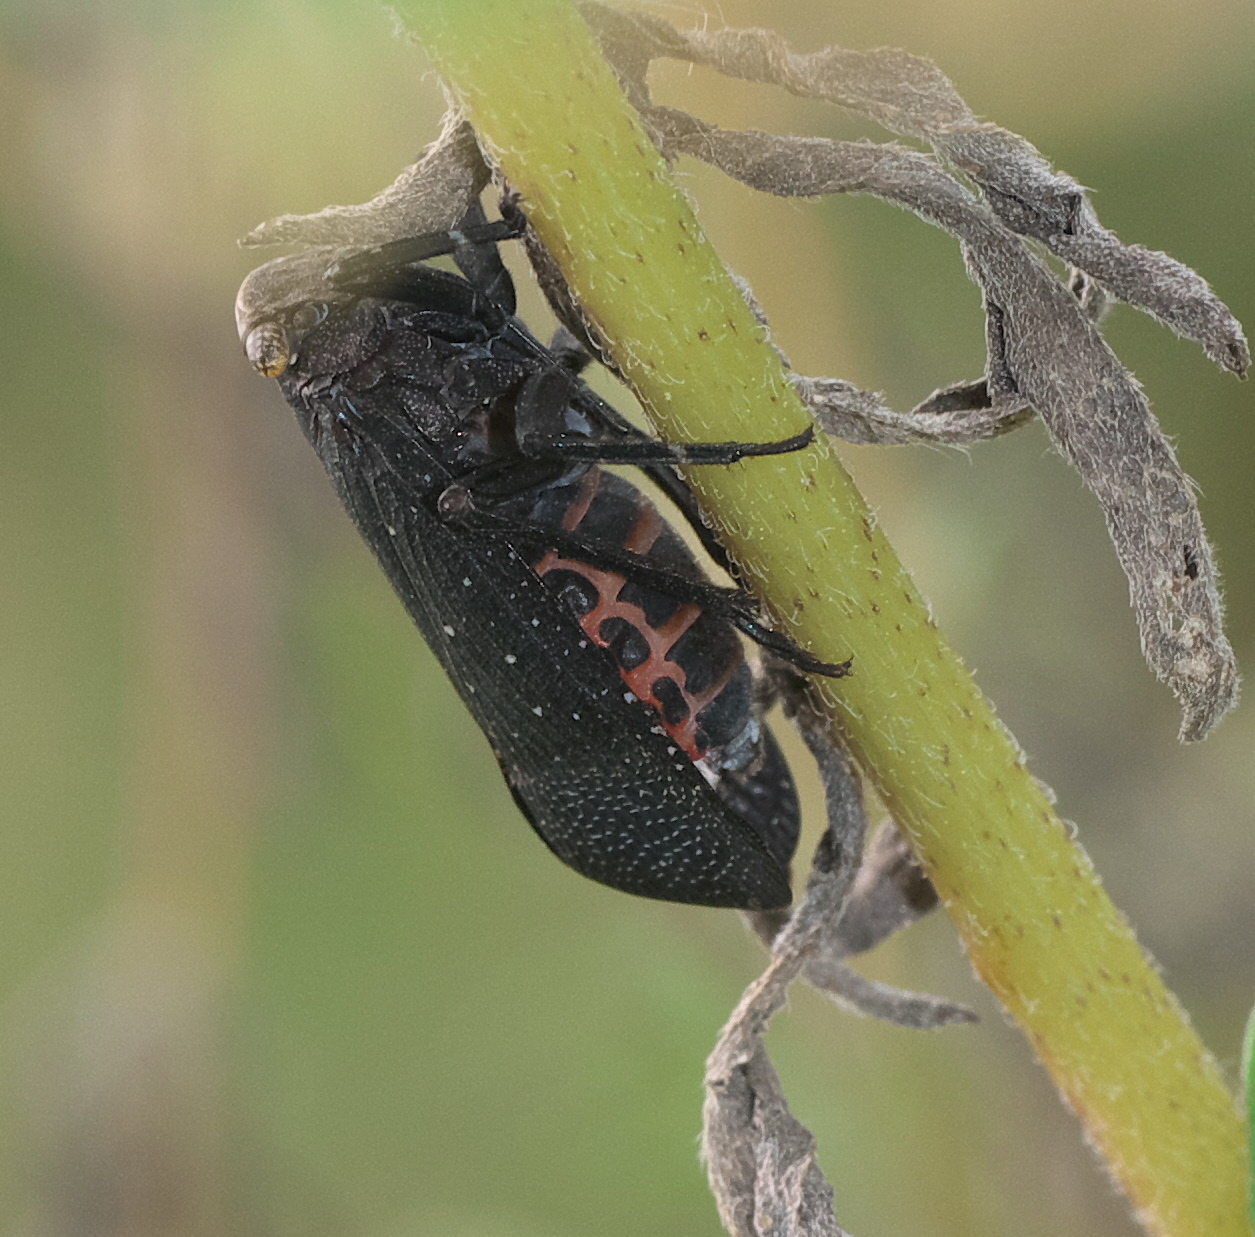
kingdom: Animalia
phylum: Arthropoda
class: Insecta
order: Hemiptera
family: Fulgoridae
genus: Crepusia
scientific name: Crepusia fuliginosa
